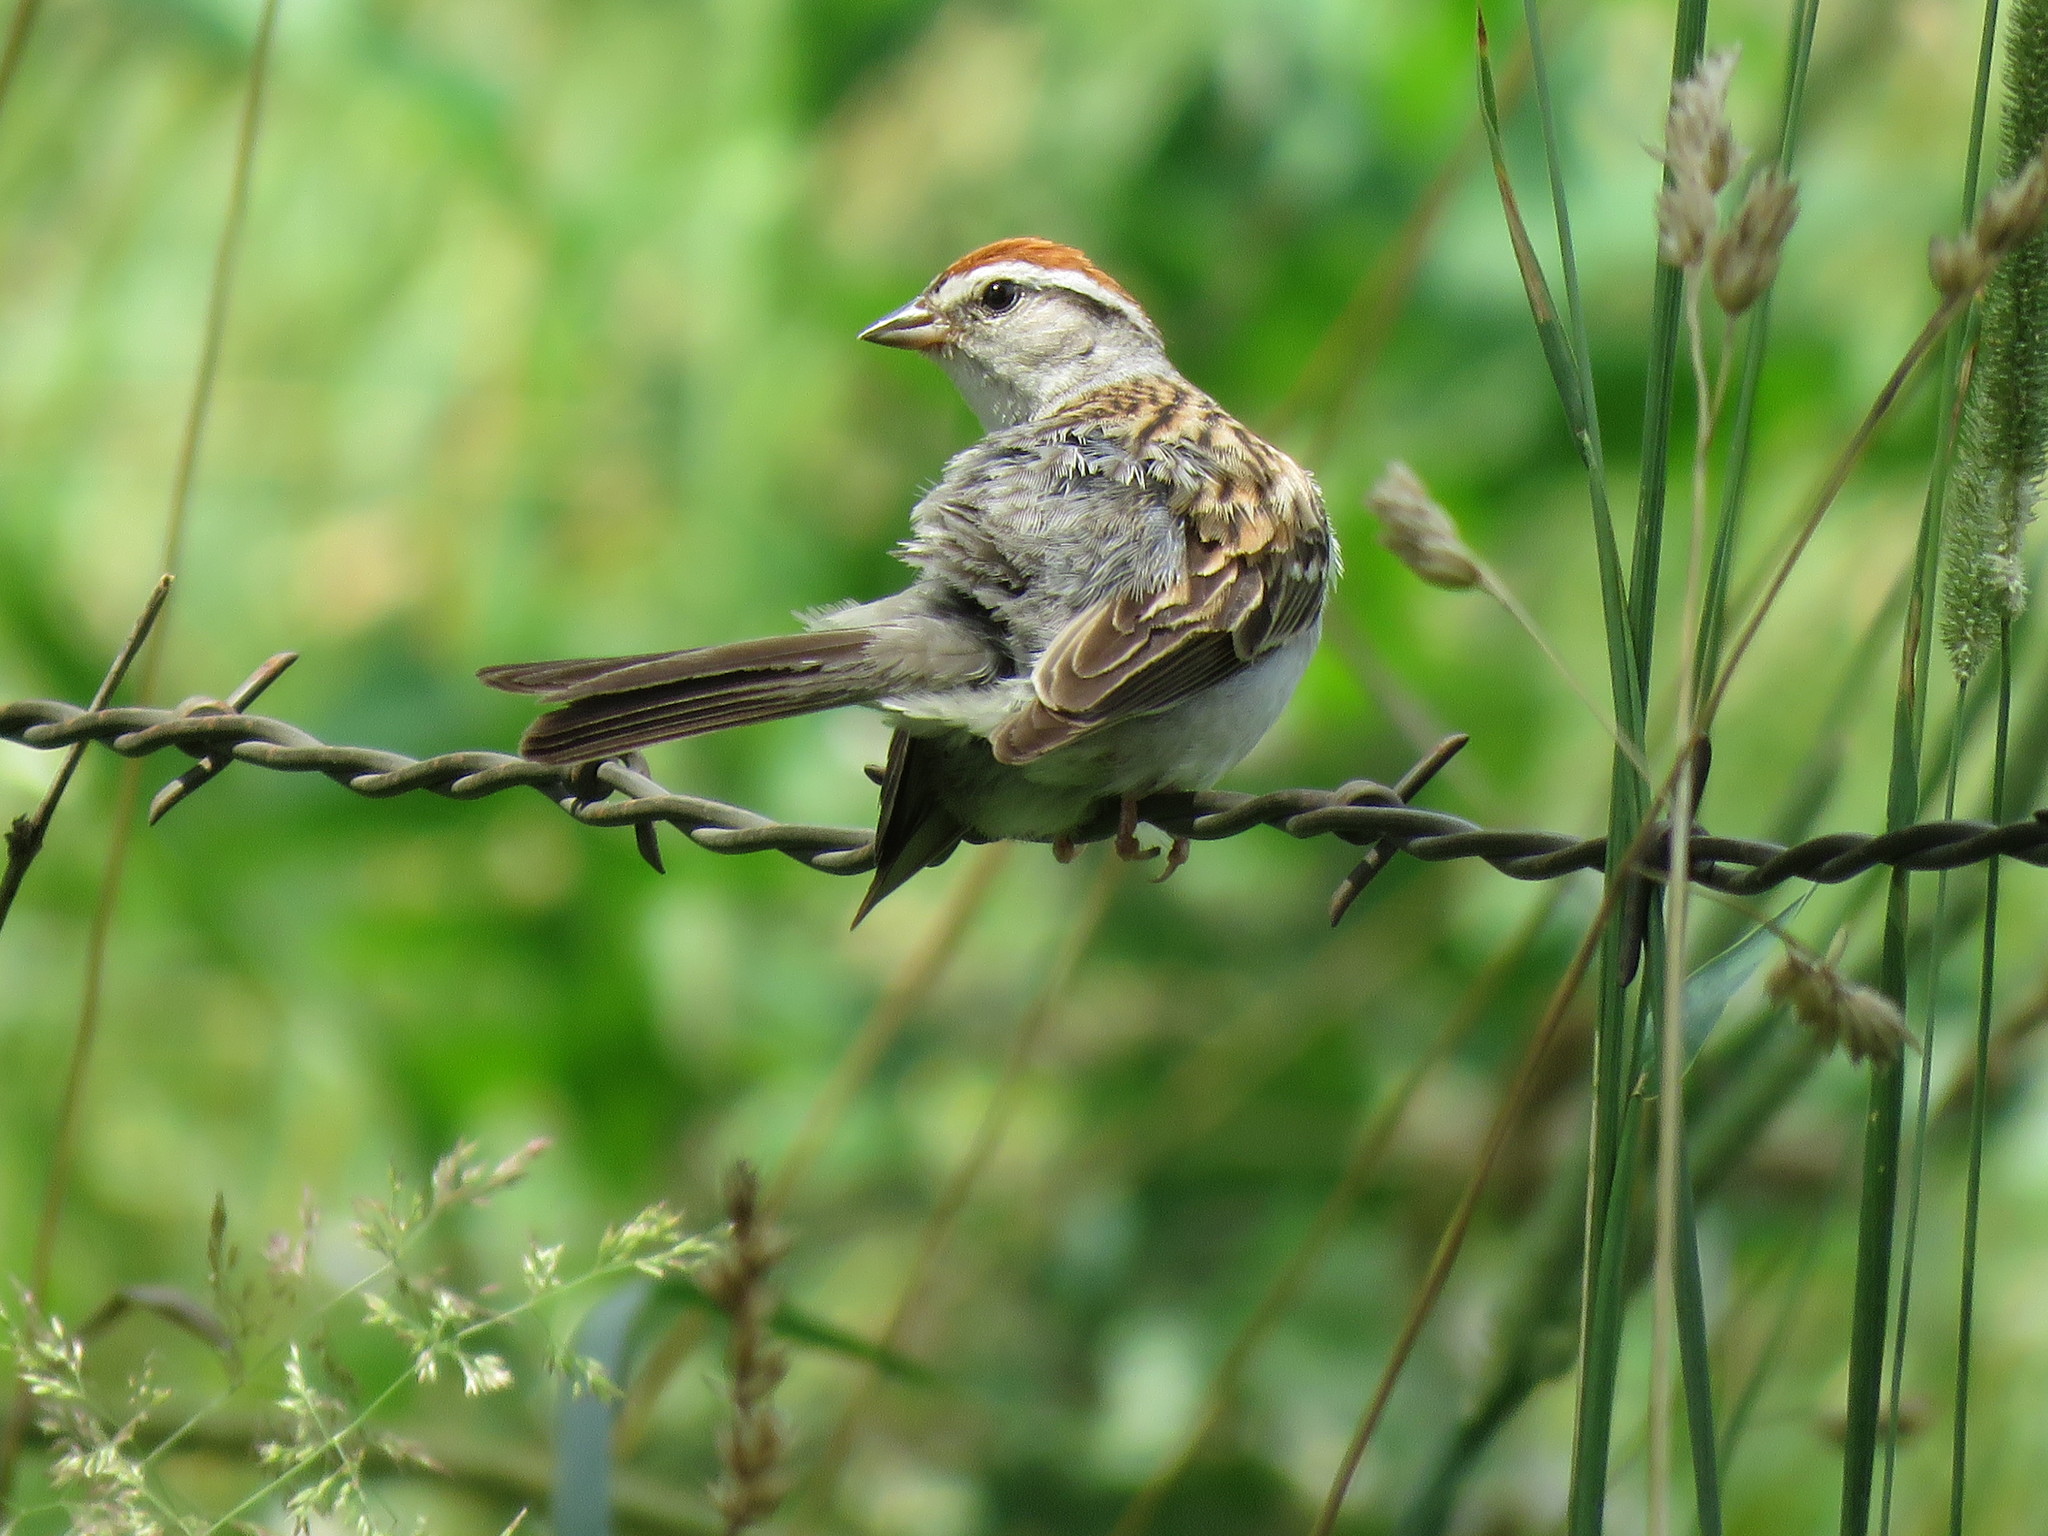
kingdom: Animalia
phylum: Chordata
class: Aves
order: Passeriformes
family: Passerellidae
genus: Spizella
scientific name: Spizella passerina
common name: Chipping sparrow
